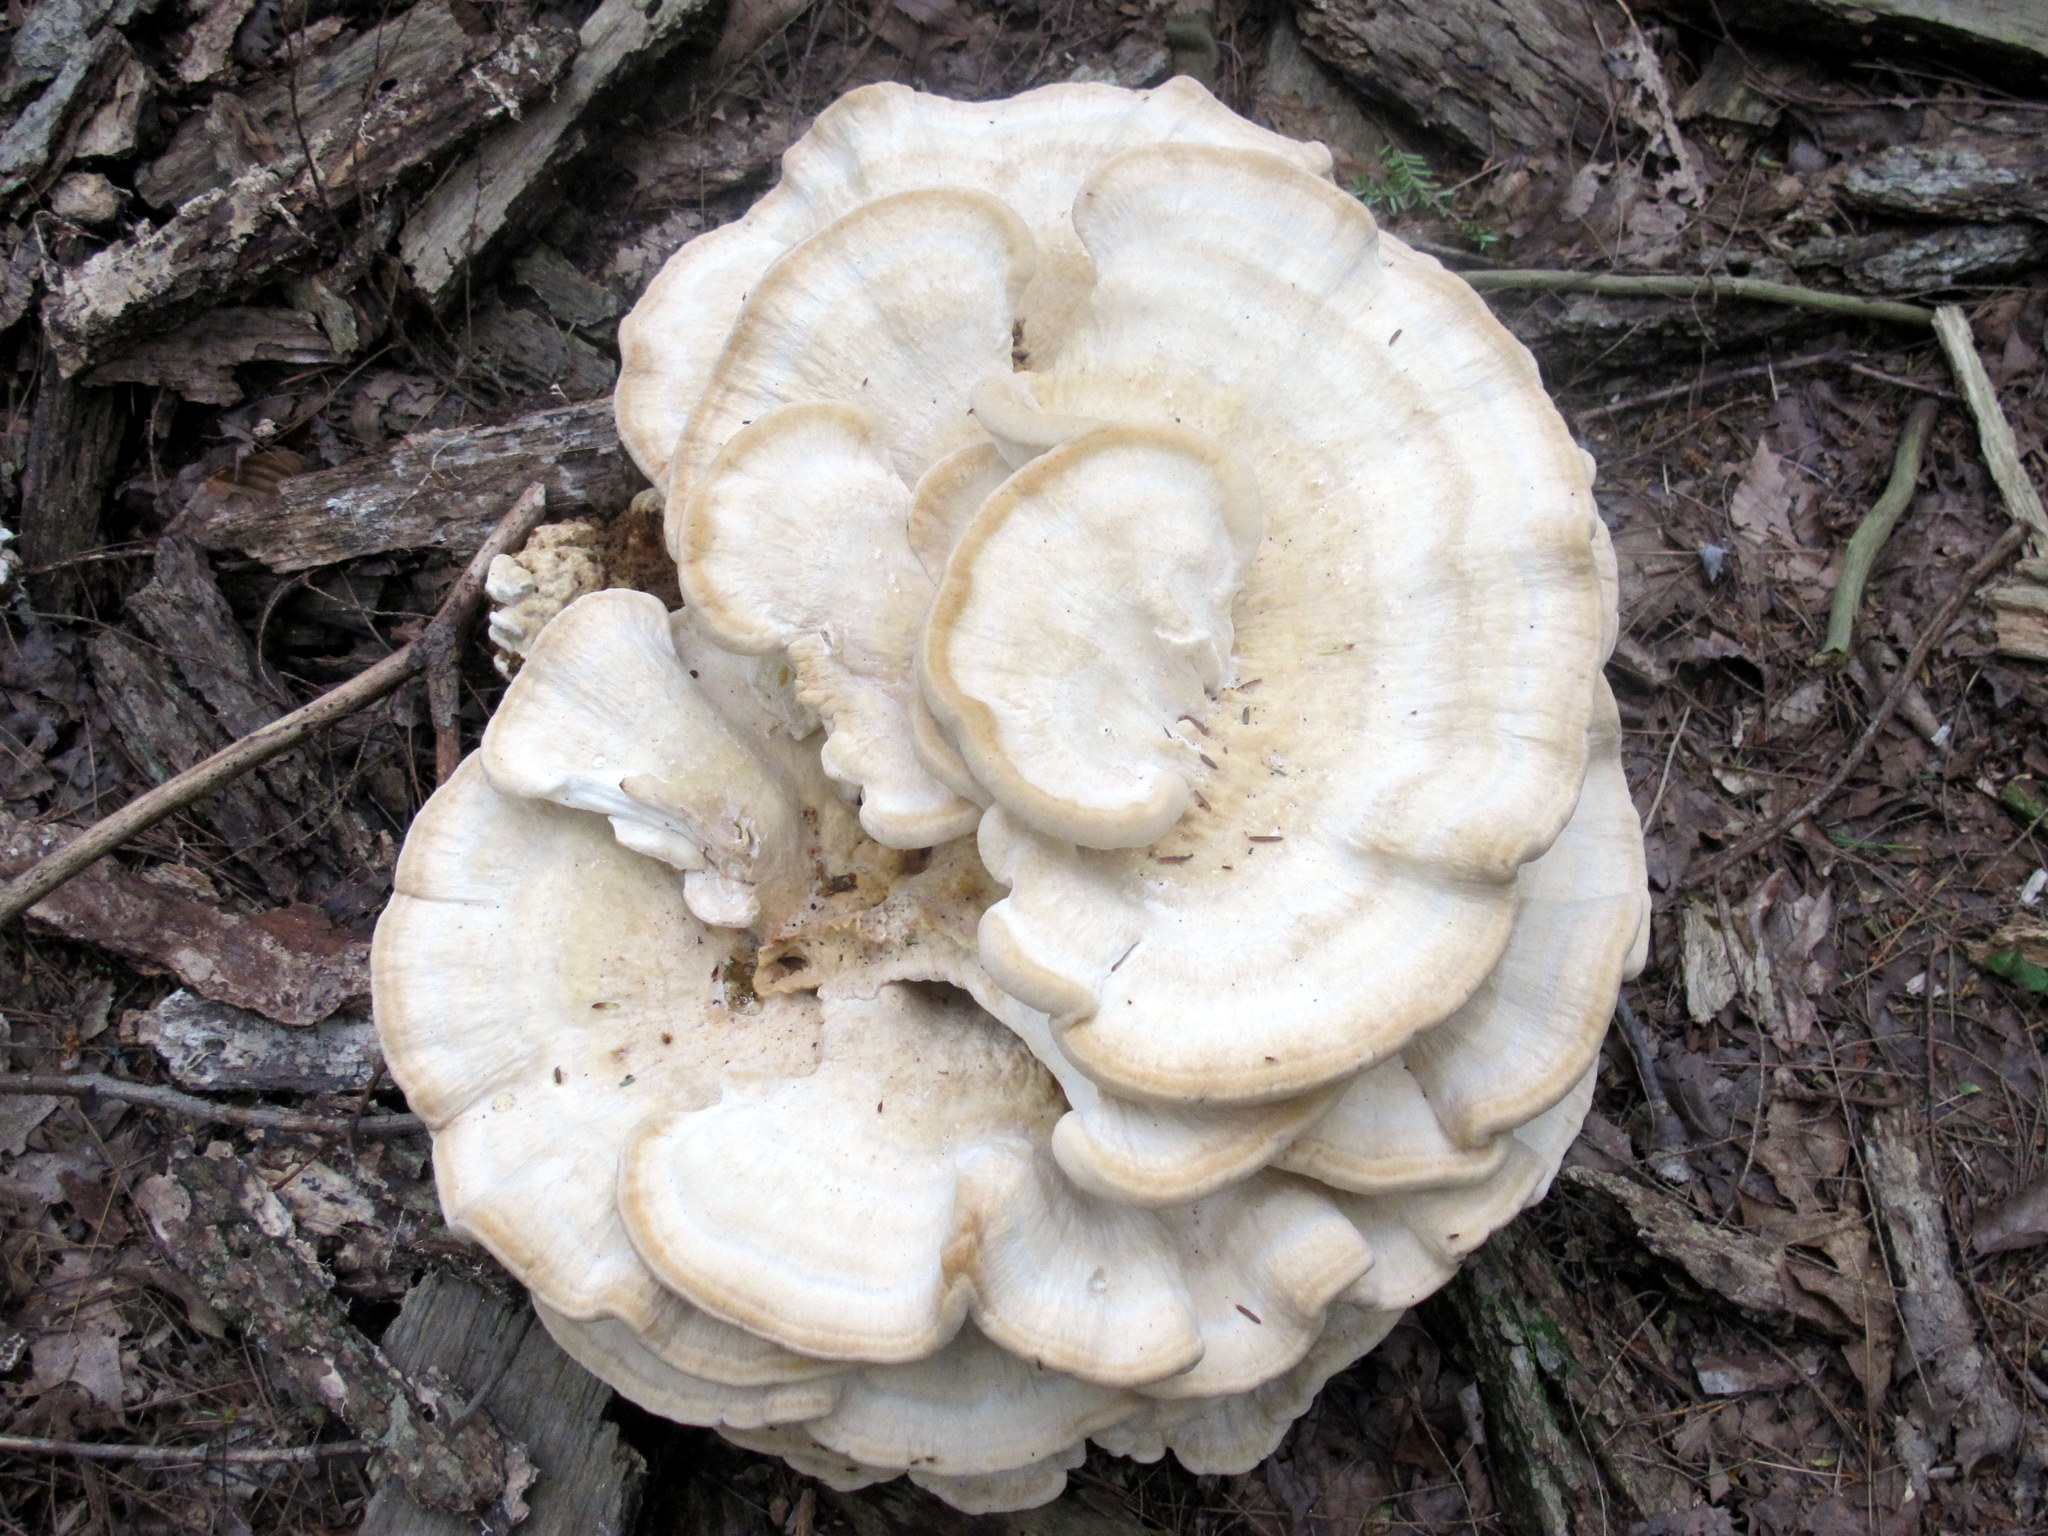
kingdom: Fungi
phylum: Basidiomycota
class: Agaricomycetes
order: Russulales
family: Bondarzewiaceae
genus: Bondarzewia
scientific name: Bondarzewia berkeleyi
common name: Berkeley's polypore
